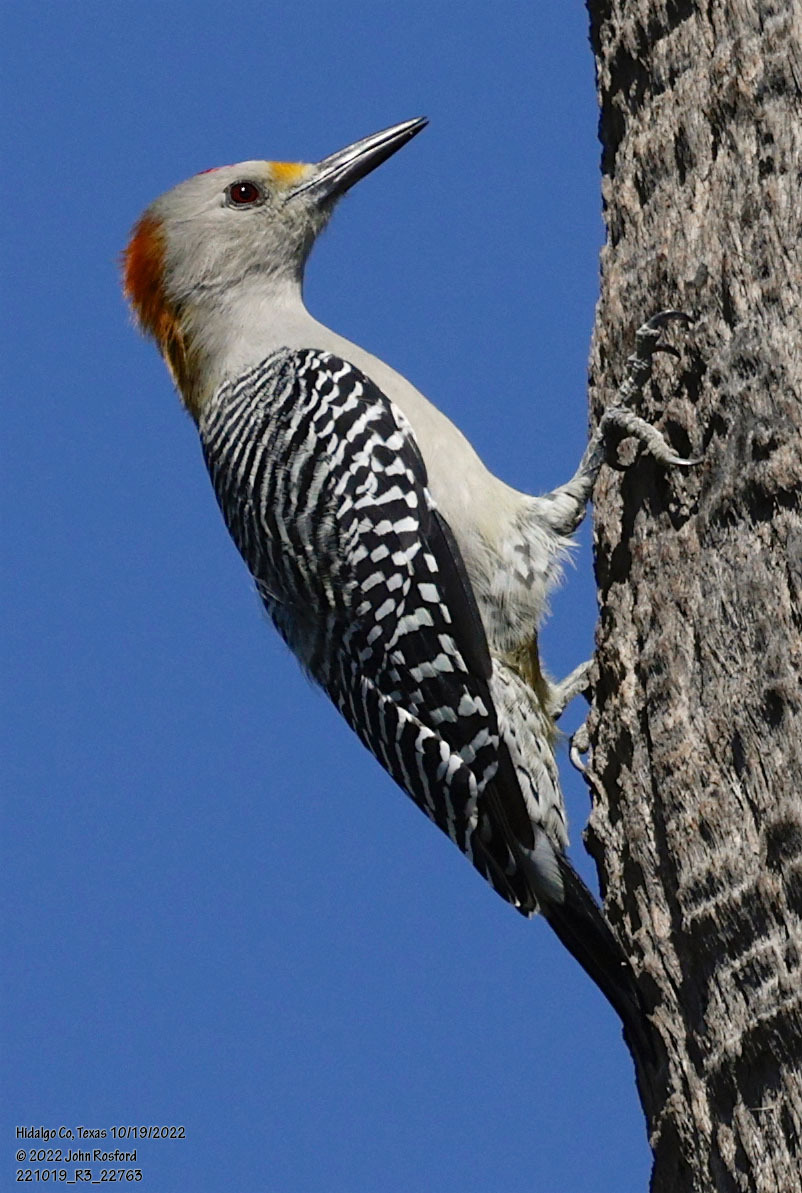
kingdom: Animalia
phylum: Chordata
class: Aves
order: Piciformes
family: Picidae
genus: Melanerpes
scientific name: Melanerpes aurifrons
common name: Golden-fronted woodpecker
